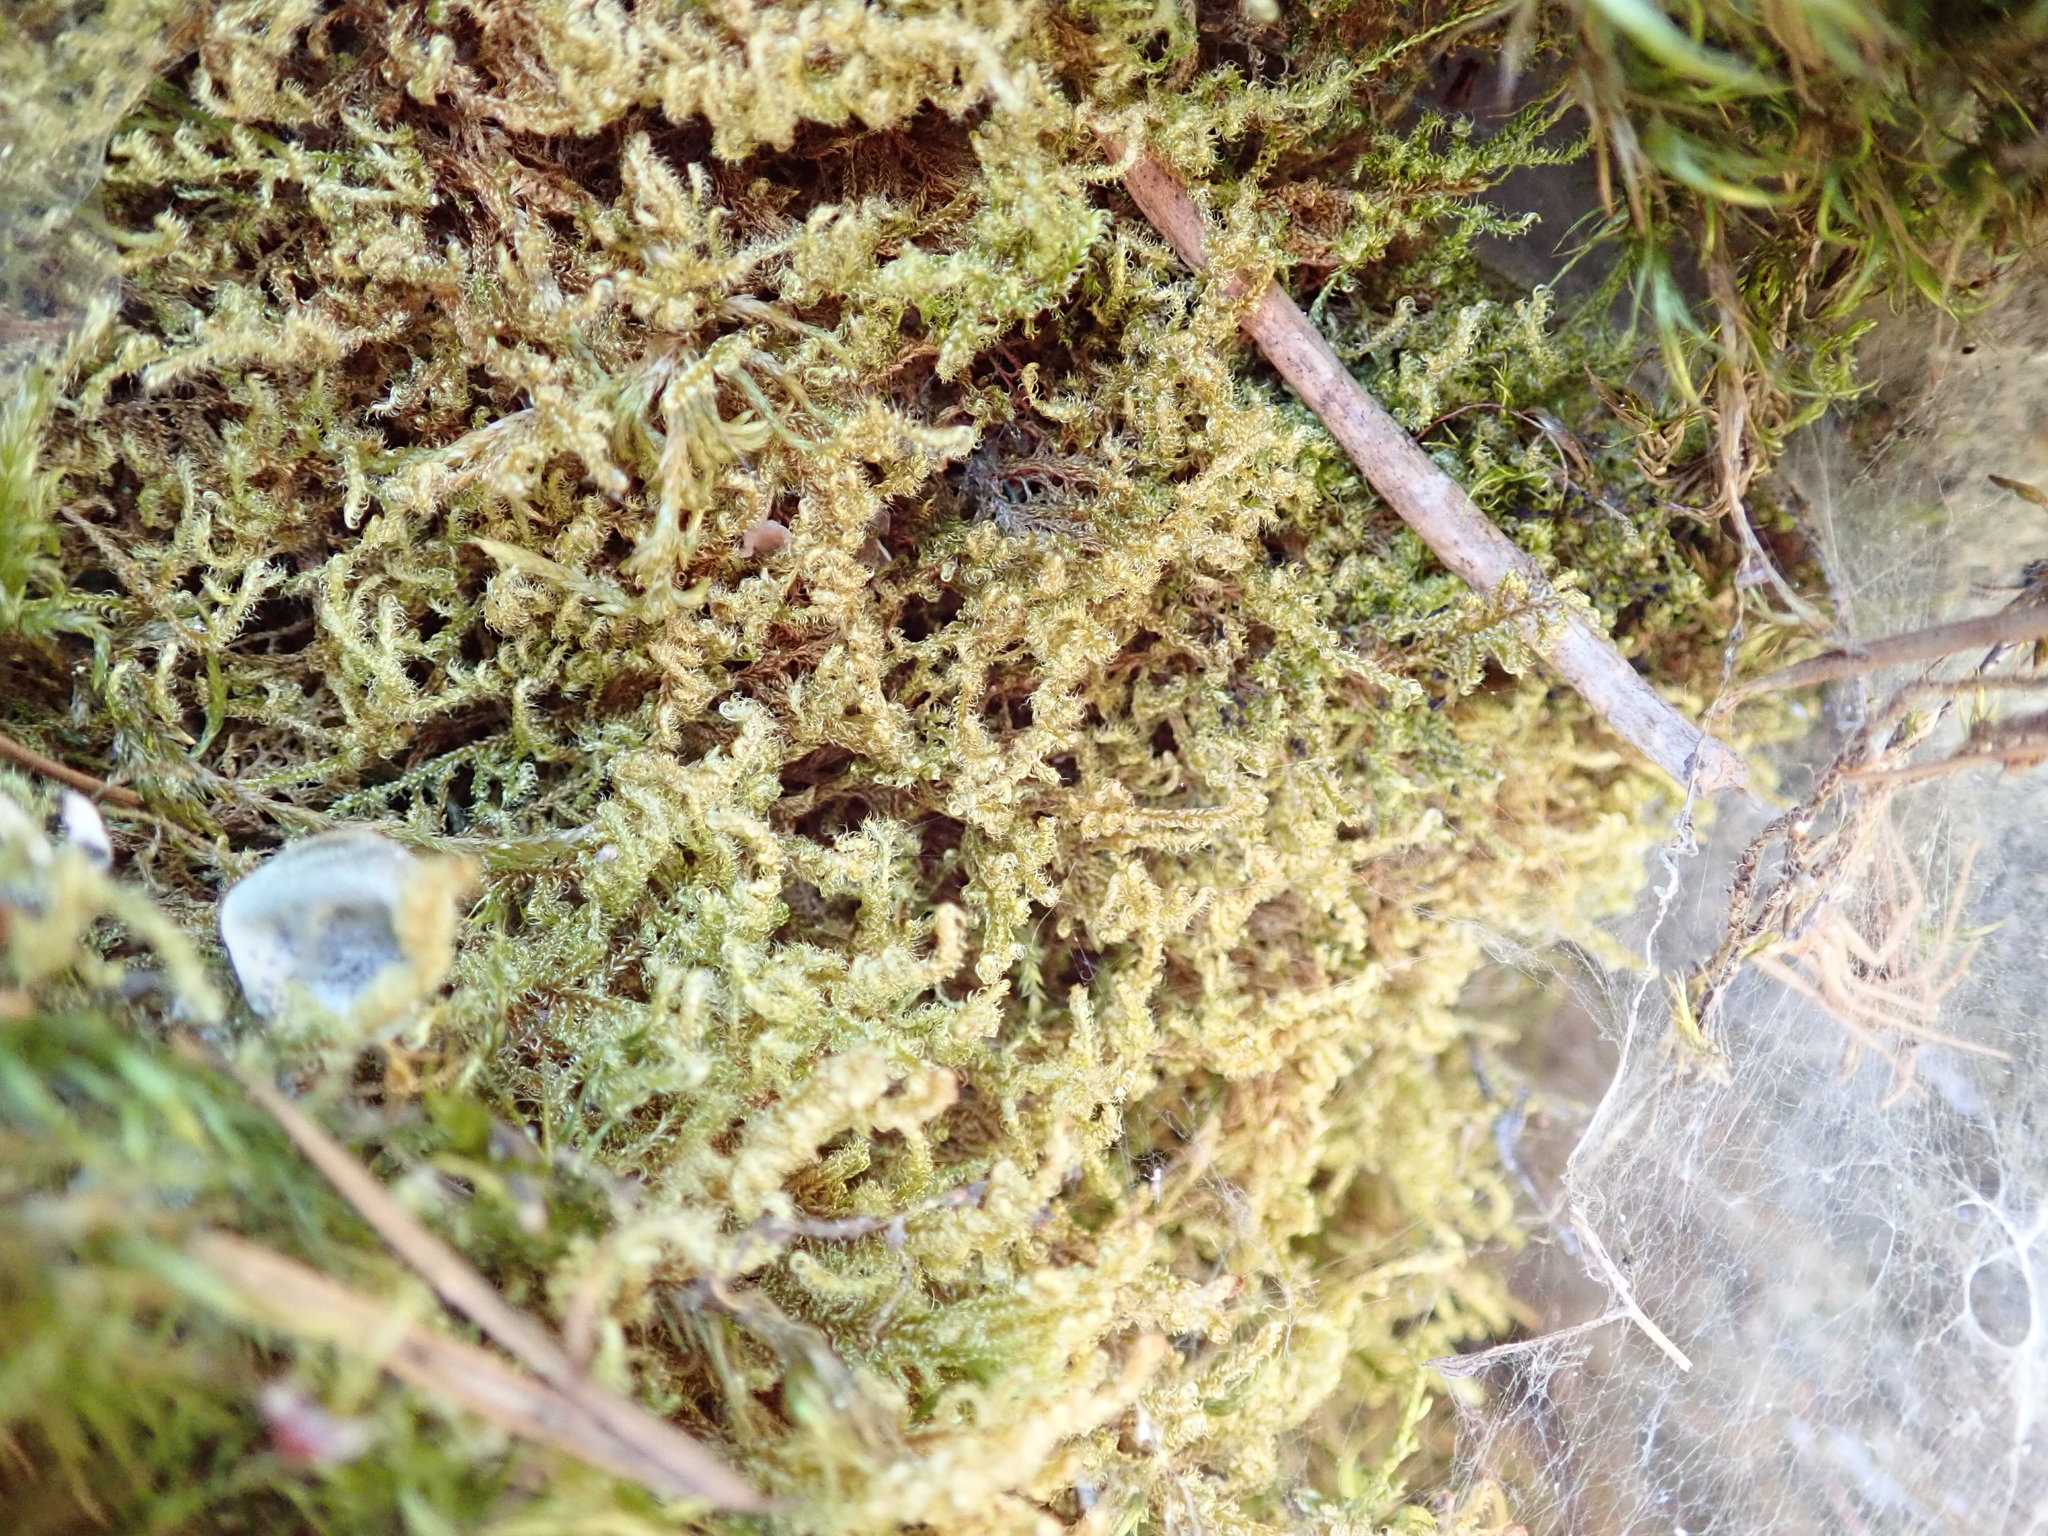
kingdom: Plantae
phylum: Bryophyta
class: Bryopsida
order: Hypnales
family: Stereodontaceae
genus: Stereodon
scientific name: Stereodon subimponens
